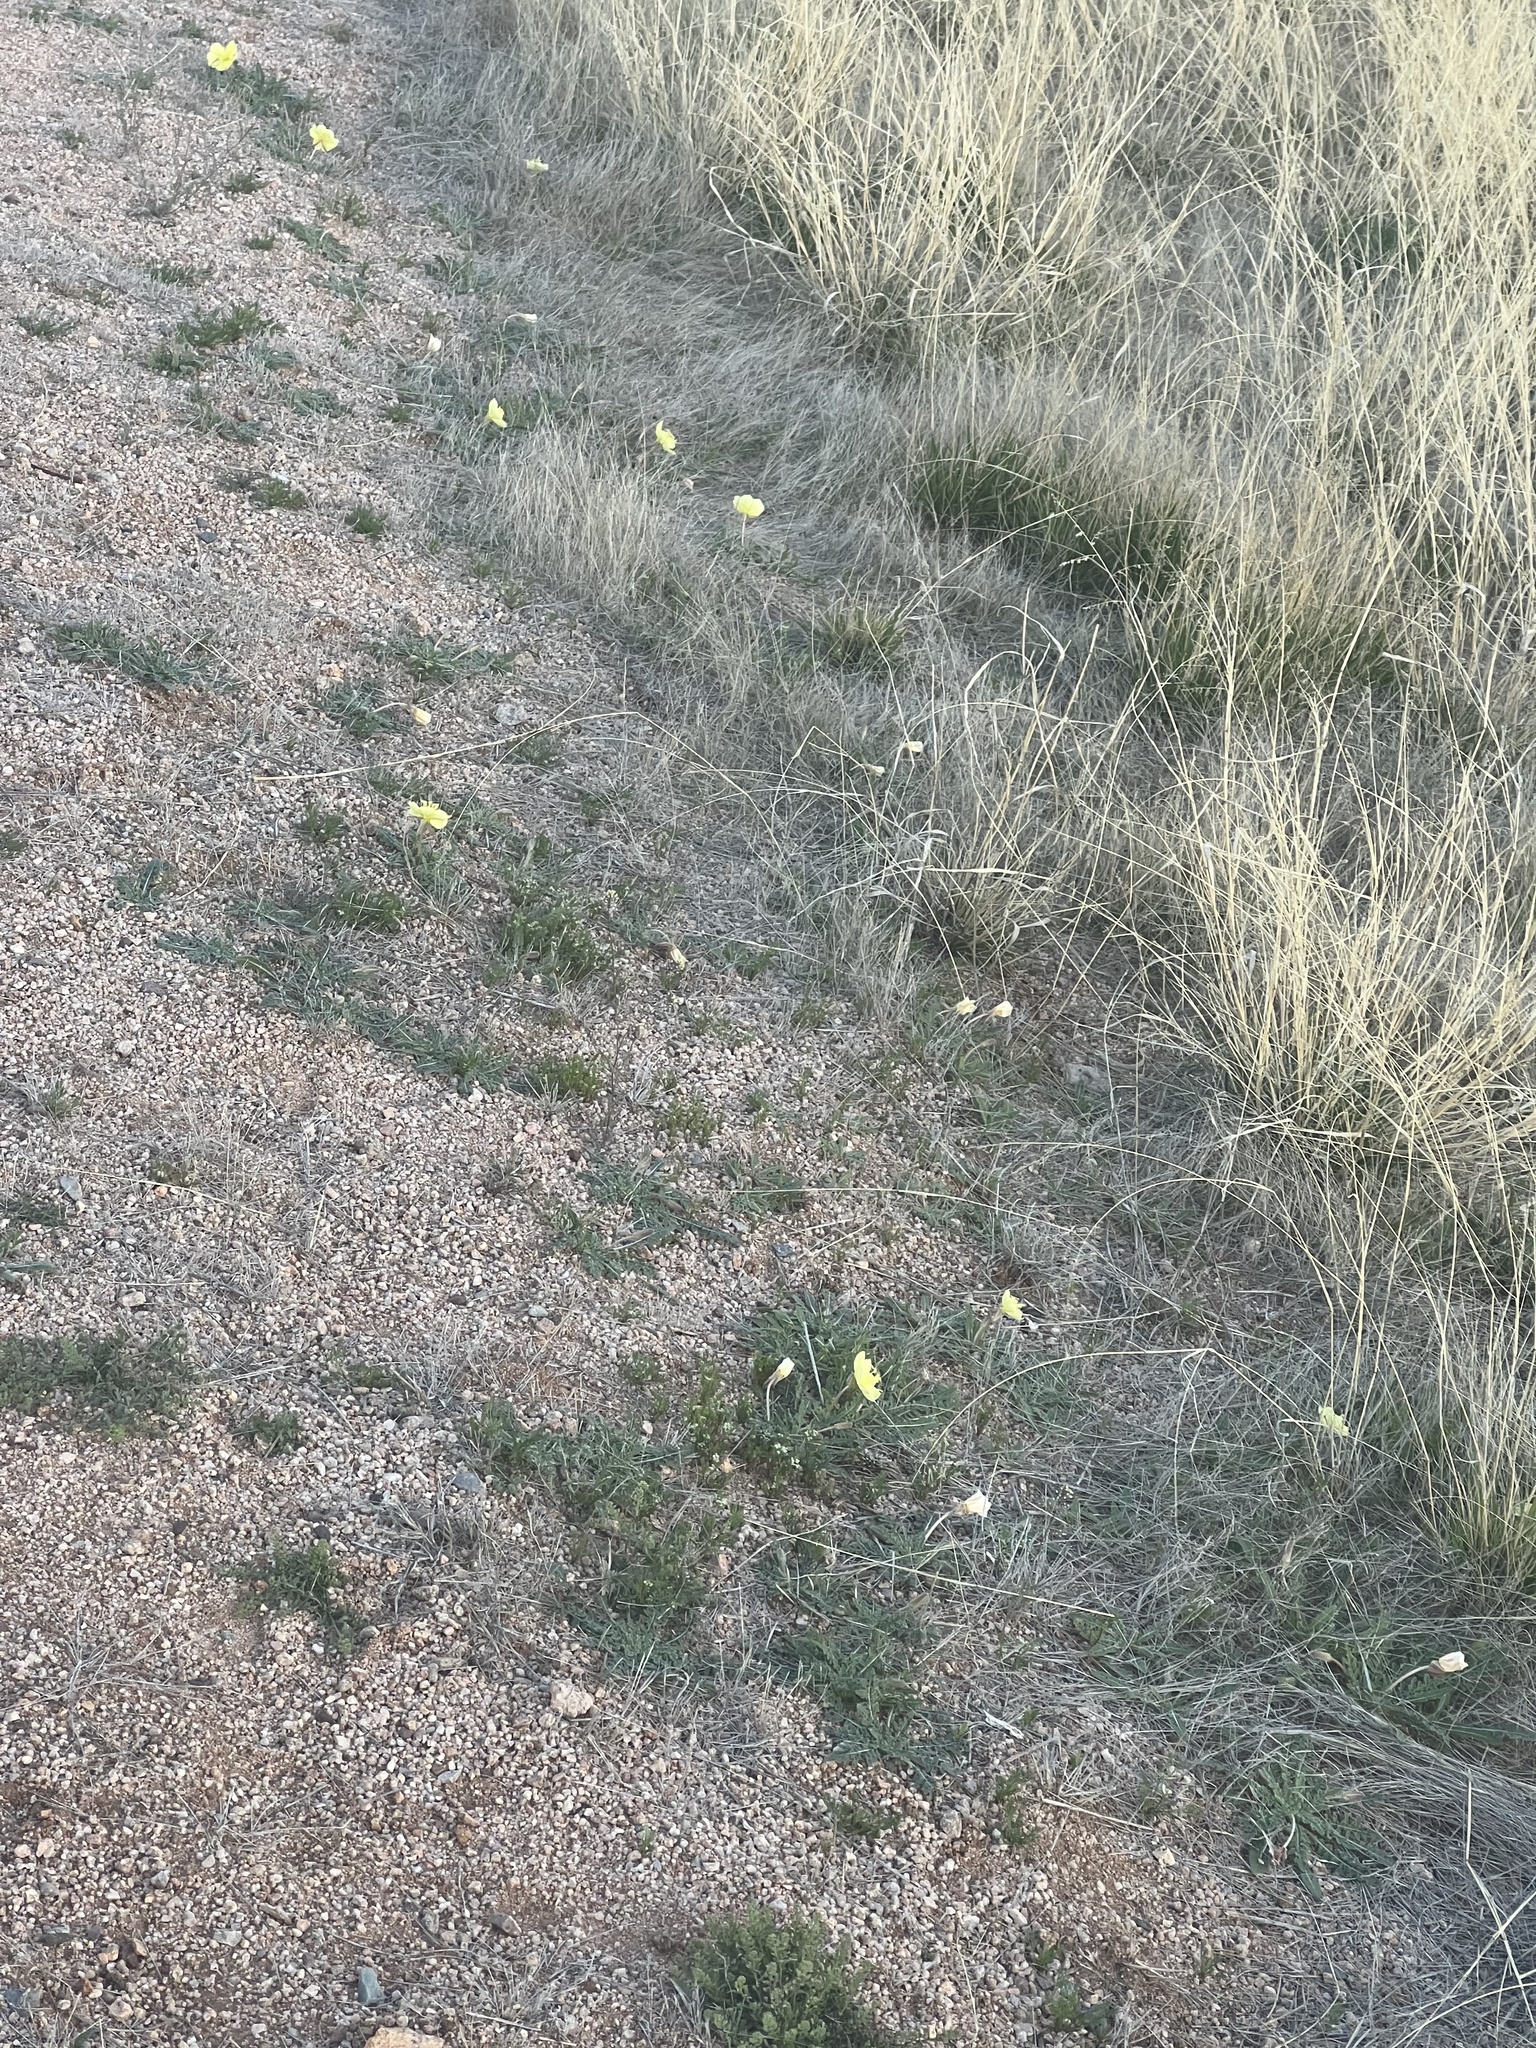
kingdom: Plantae
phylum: Tracheophyta
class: Magnoliopsida
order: Myrtales
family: Onagraceae
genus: Oenothera
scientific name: Oenothera primiveris
